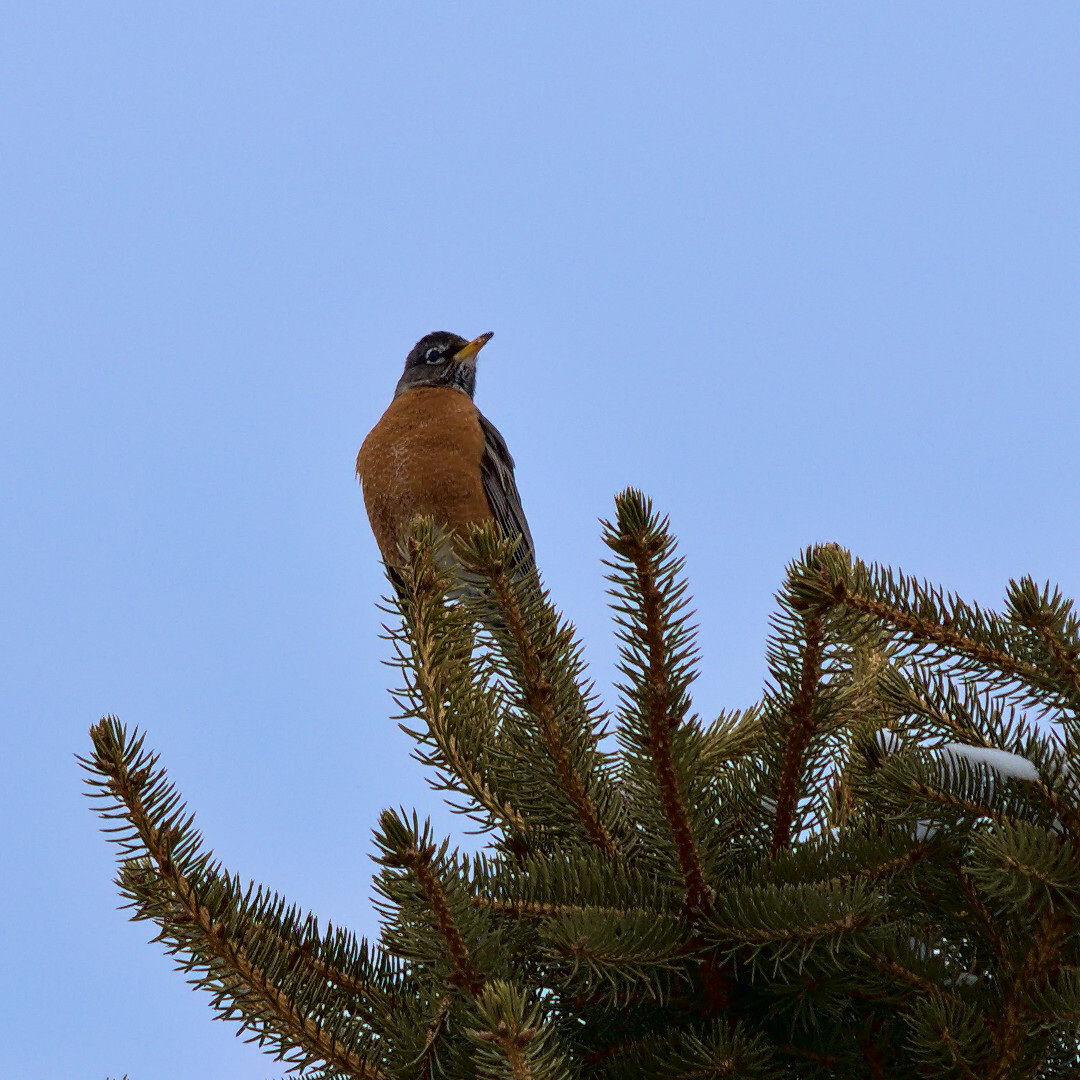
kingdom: Animalia
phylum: Chordata
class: Aves
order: Passeriformes
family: Turdidae
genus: Turdus
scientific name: Turdus migratorius
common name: American robin
